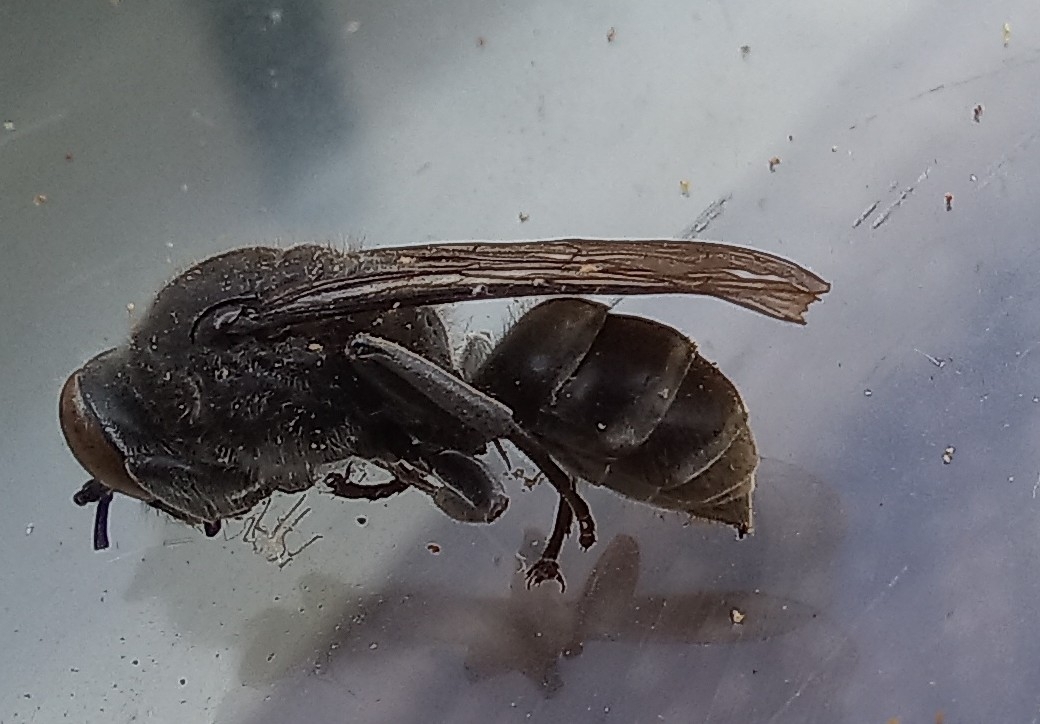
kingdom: Animalia
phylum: Arthropoda
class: Insecta
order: Hymenoptera
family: Crabronidae
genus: Pison
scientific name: Pison spinolae
